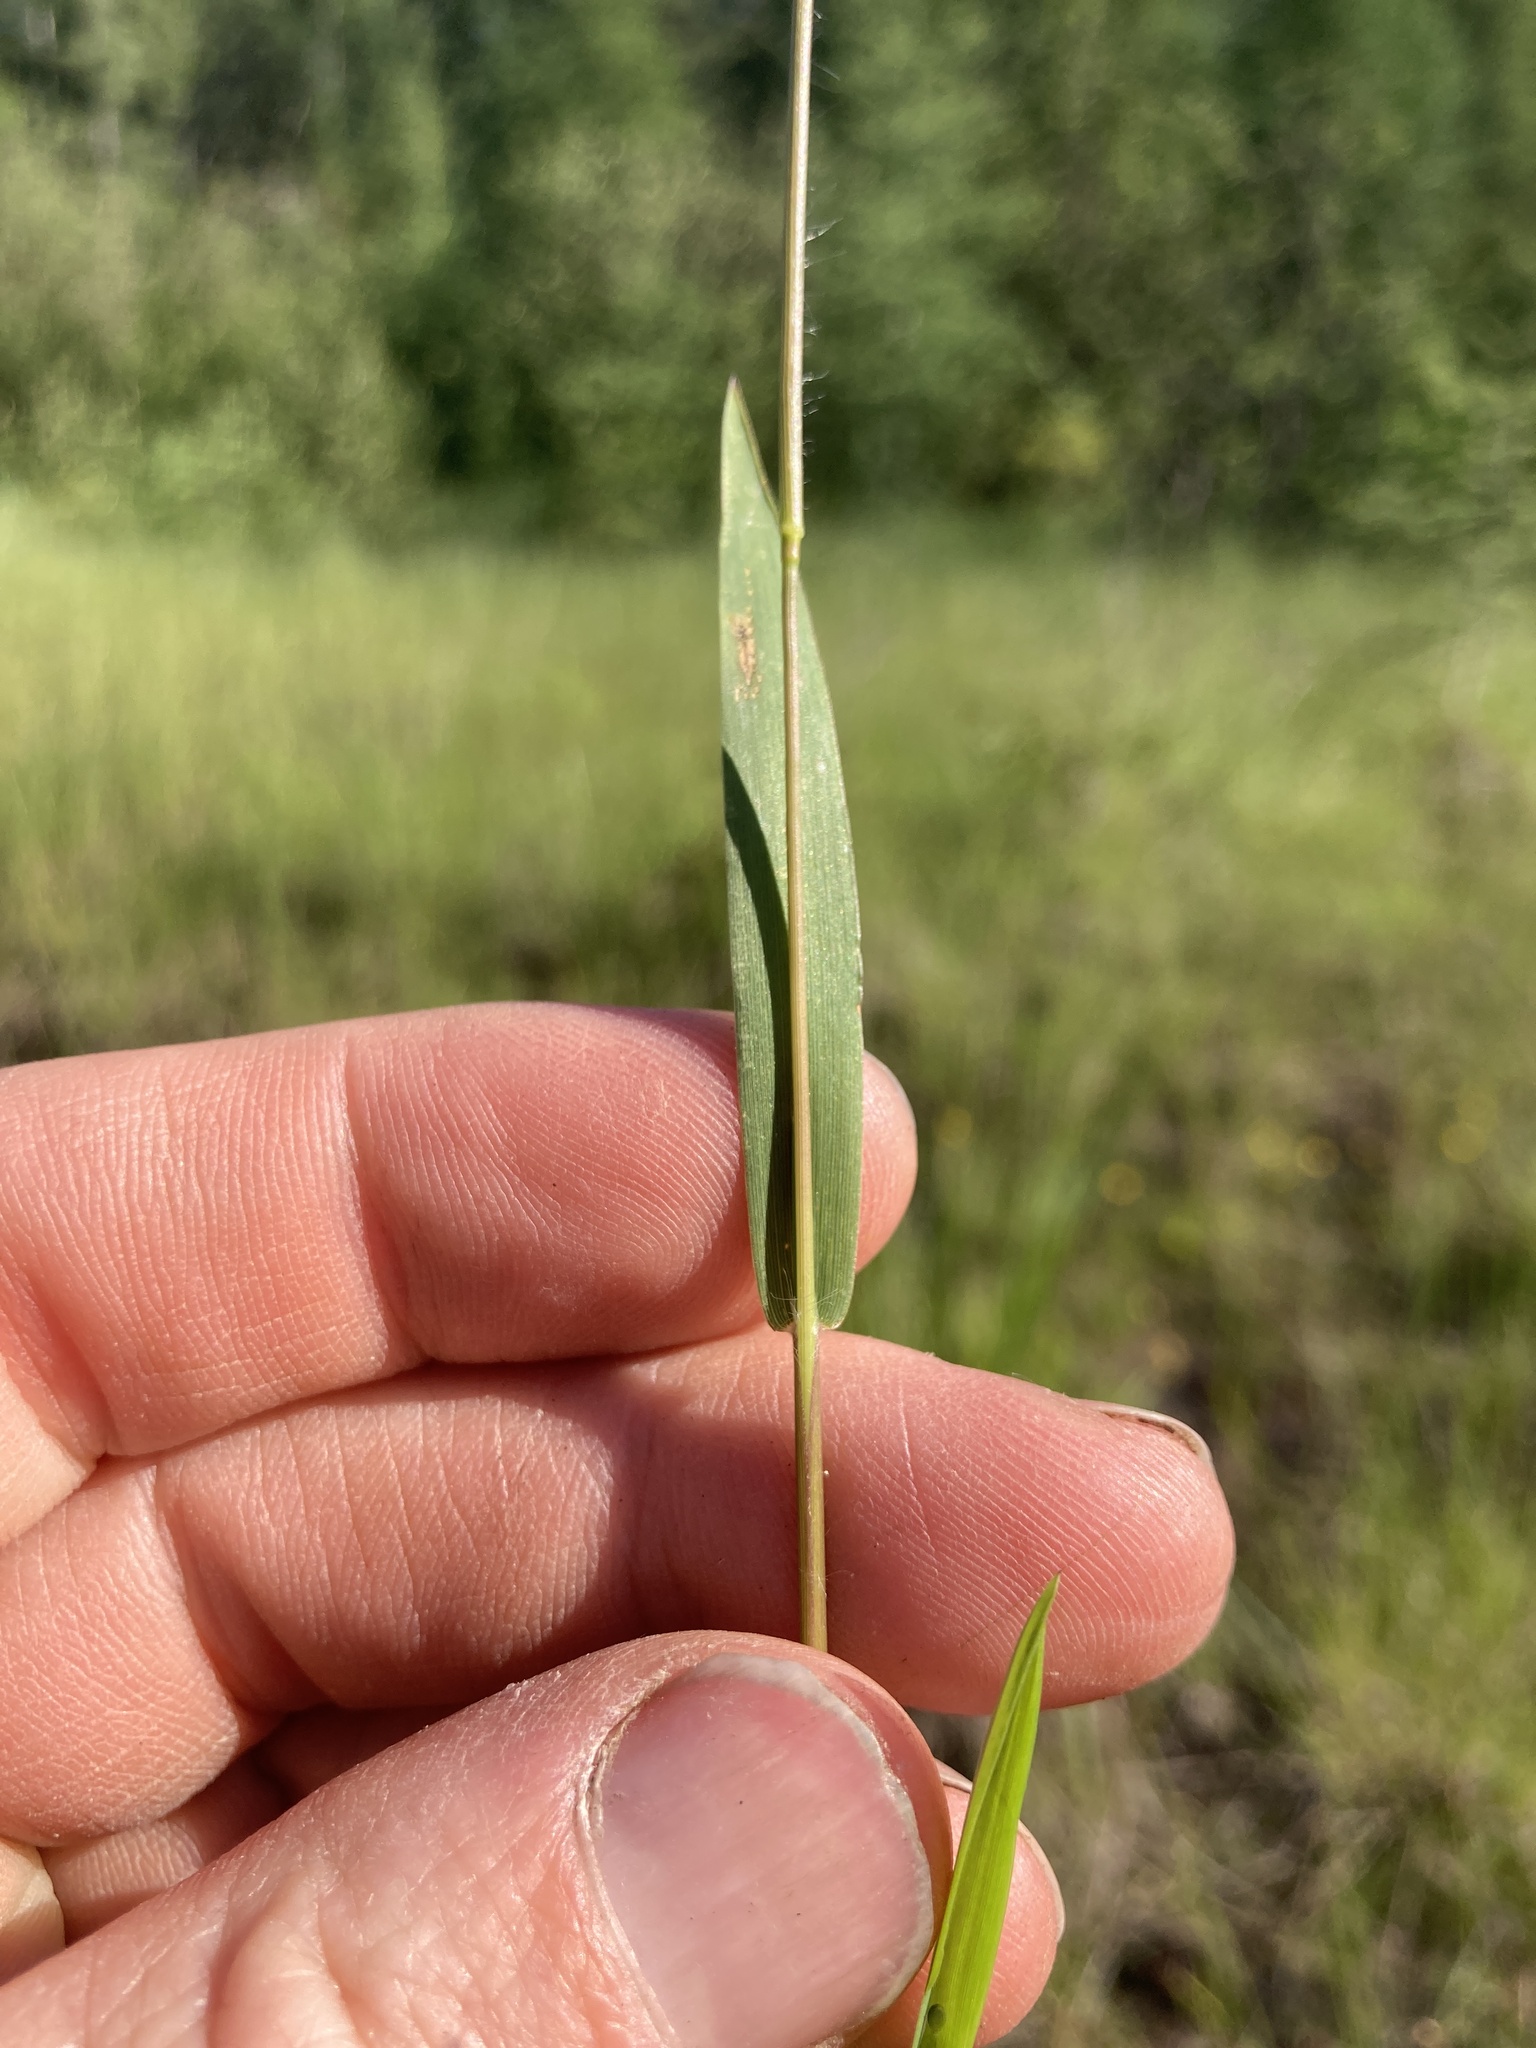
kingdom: Plantae
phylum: Tracheophyta
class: Liliopsida
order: Poales
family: Poaceae
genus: Dichanthelium
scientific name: Dichanthelium lindheimeri
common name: Lindheimer's panicgrass
